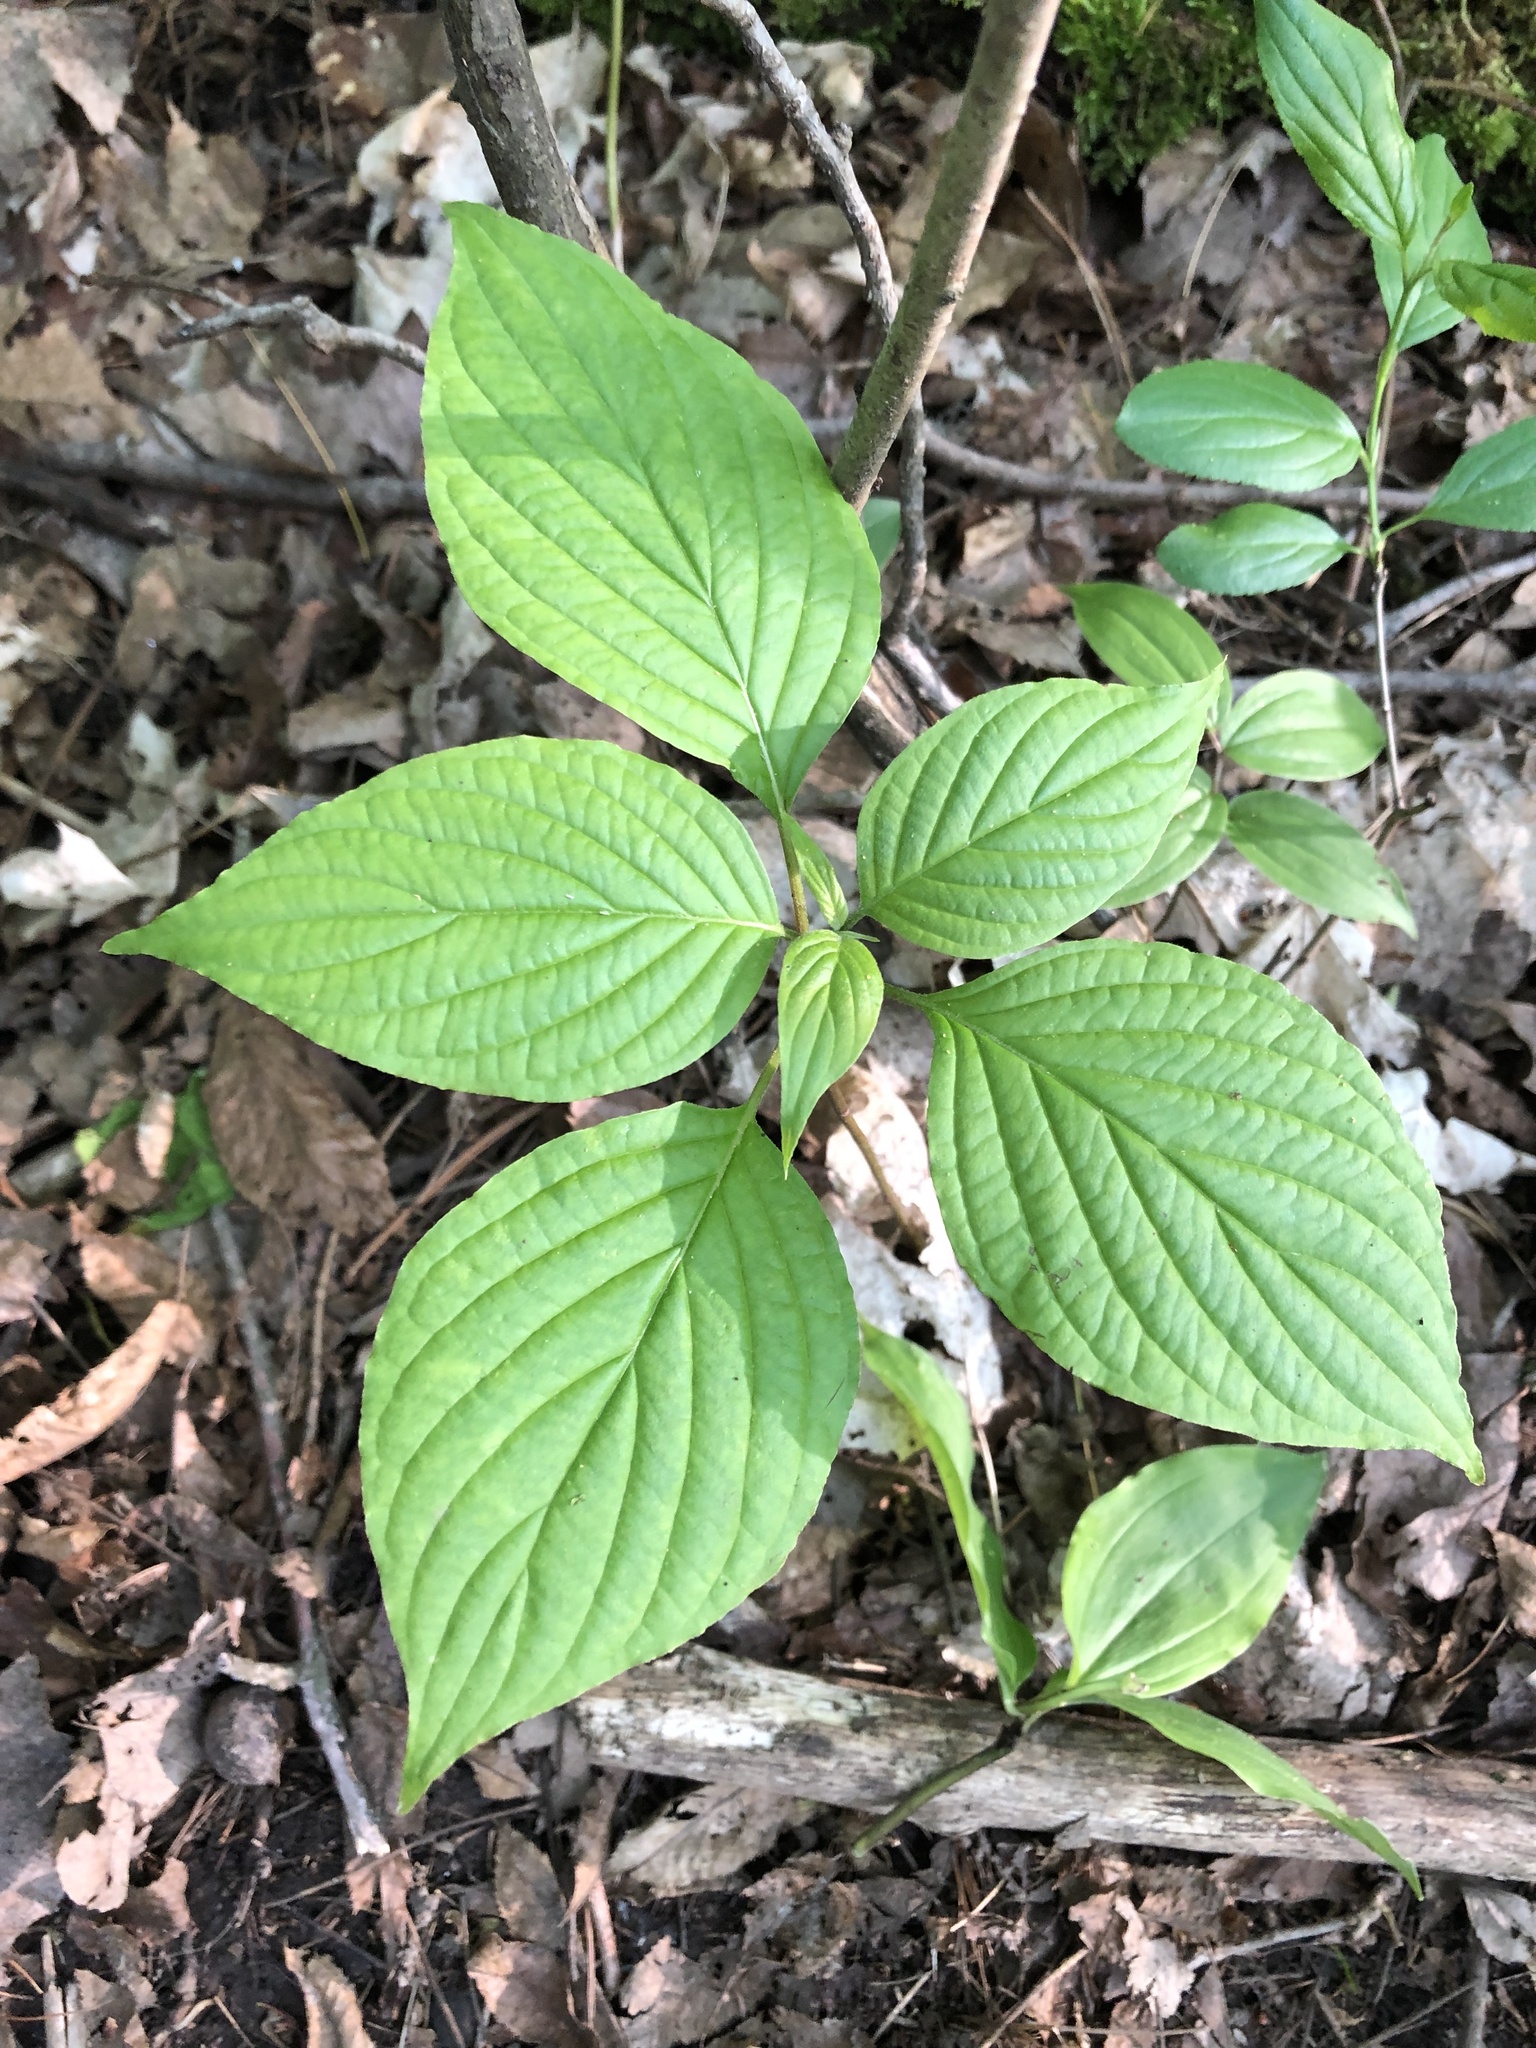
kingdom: Plantae
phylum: Tracheophyta
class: Magnoliopsida
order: Cornales
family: Cornaceae
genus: Cornus
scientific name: Cornus alternifolia
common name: Pagoda dogwood
